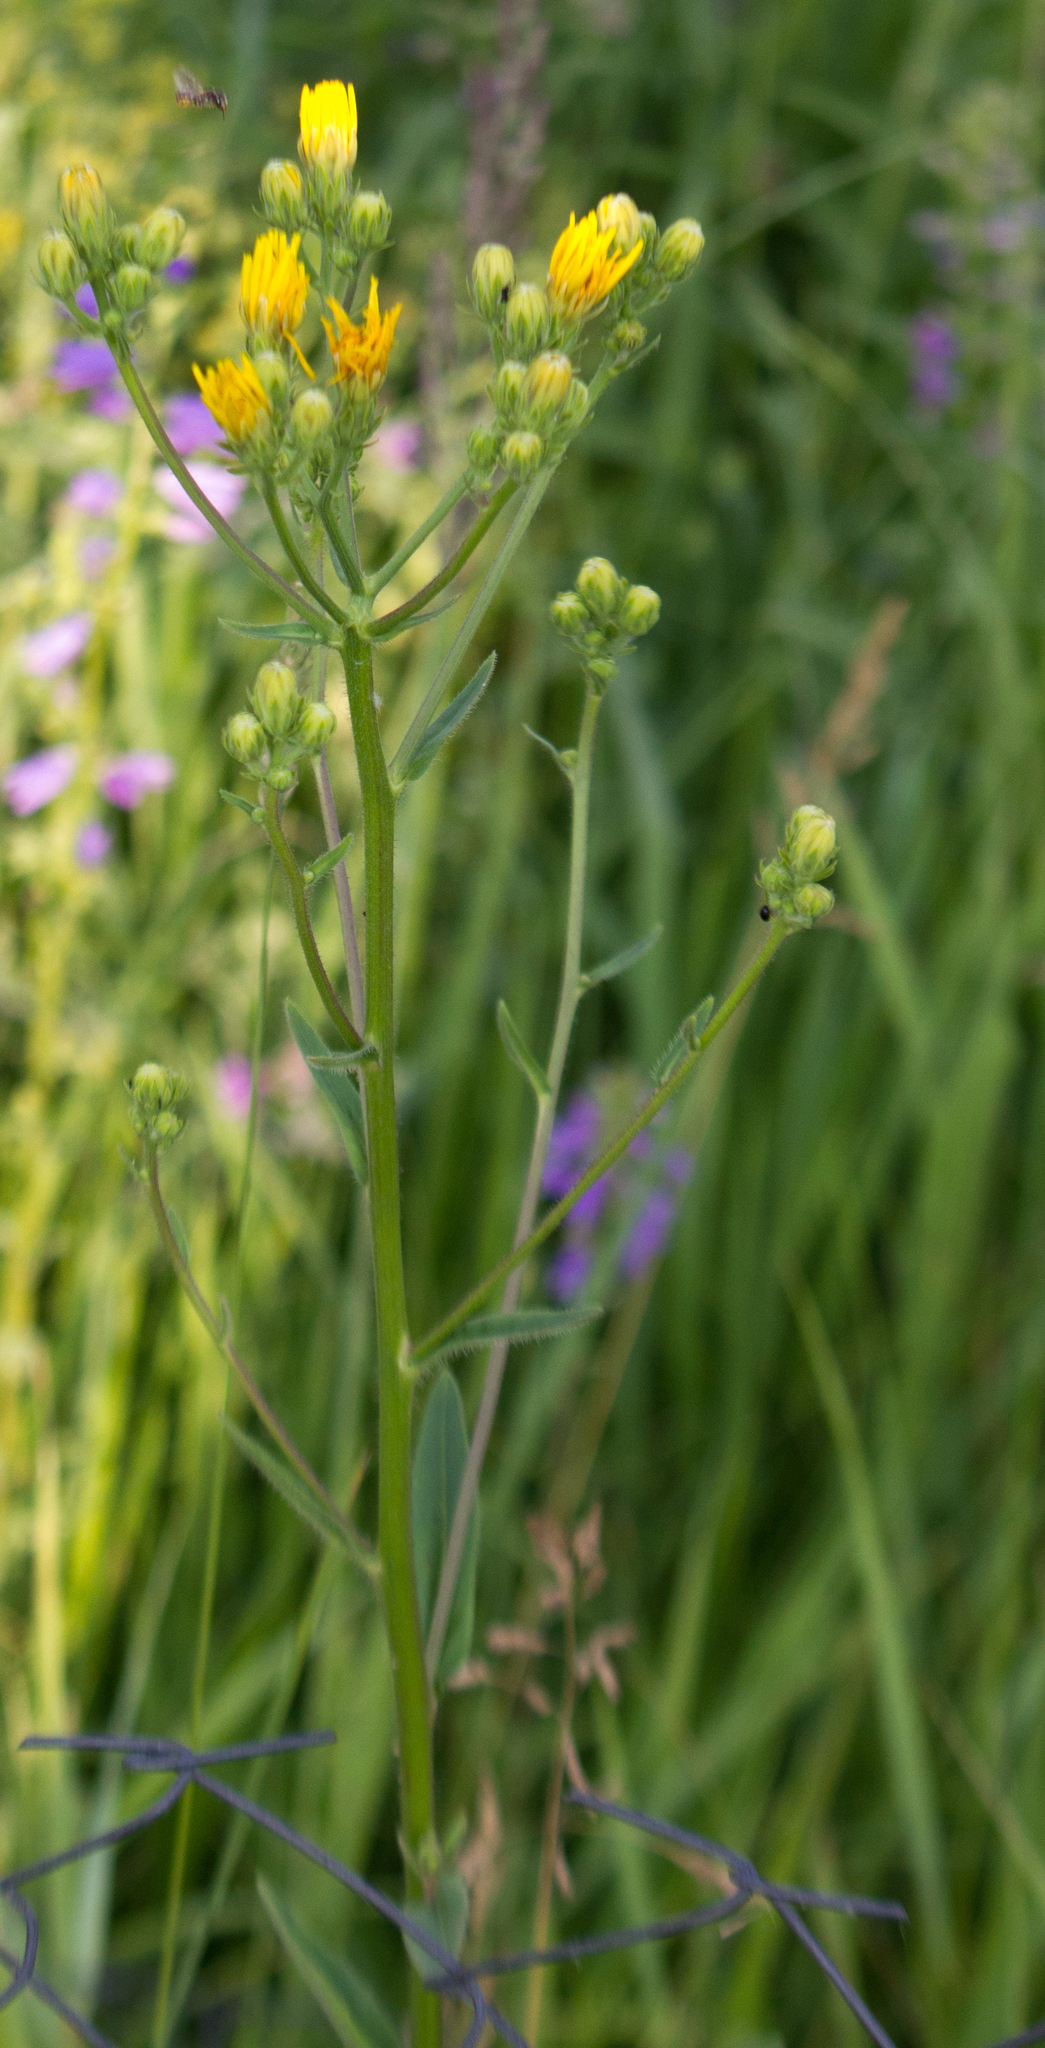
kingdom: Plantae
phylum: Tracheophyta
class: Magnoliopsida
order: Asterales
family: Asteraceae
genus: Picris
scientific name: Picris hieracioides
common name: Hawkweed oxtongue
